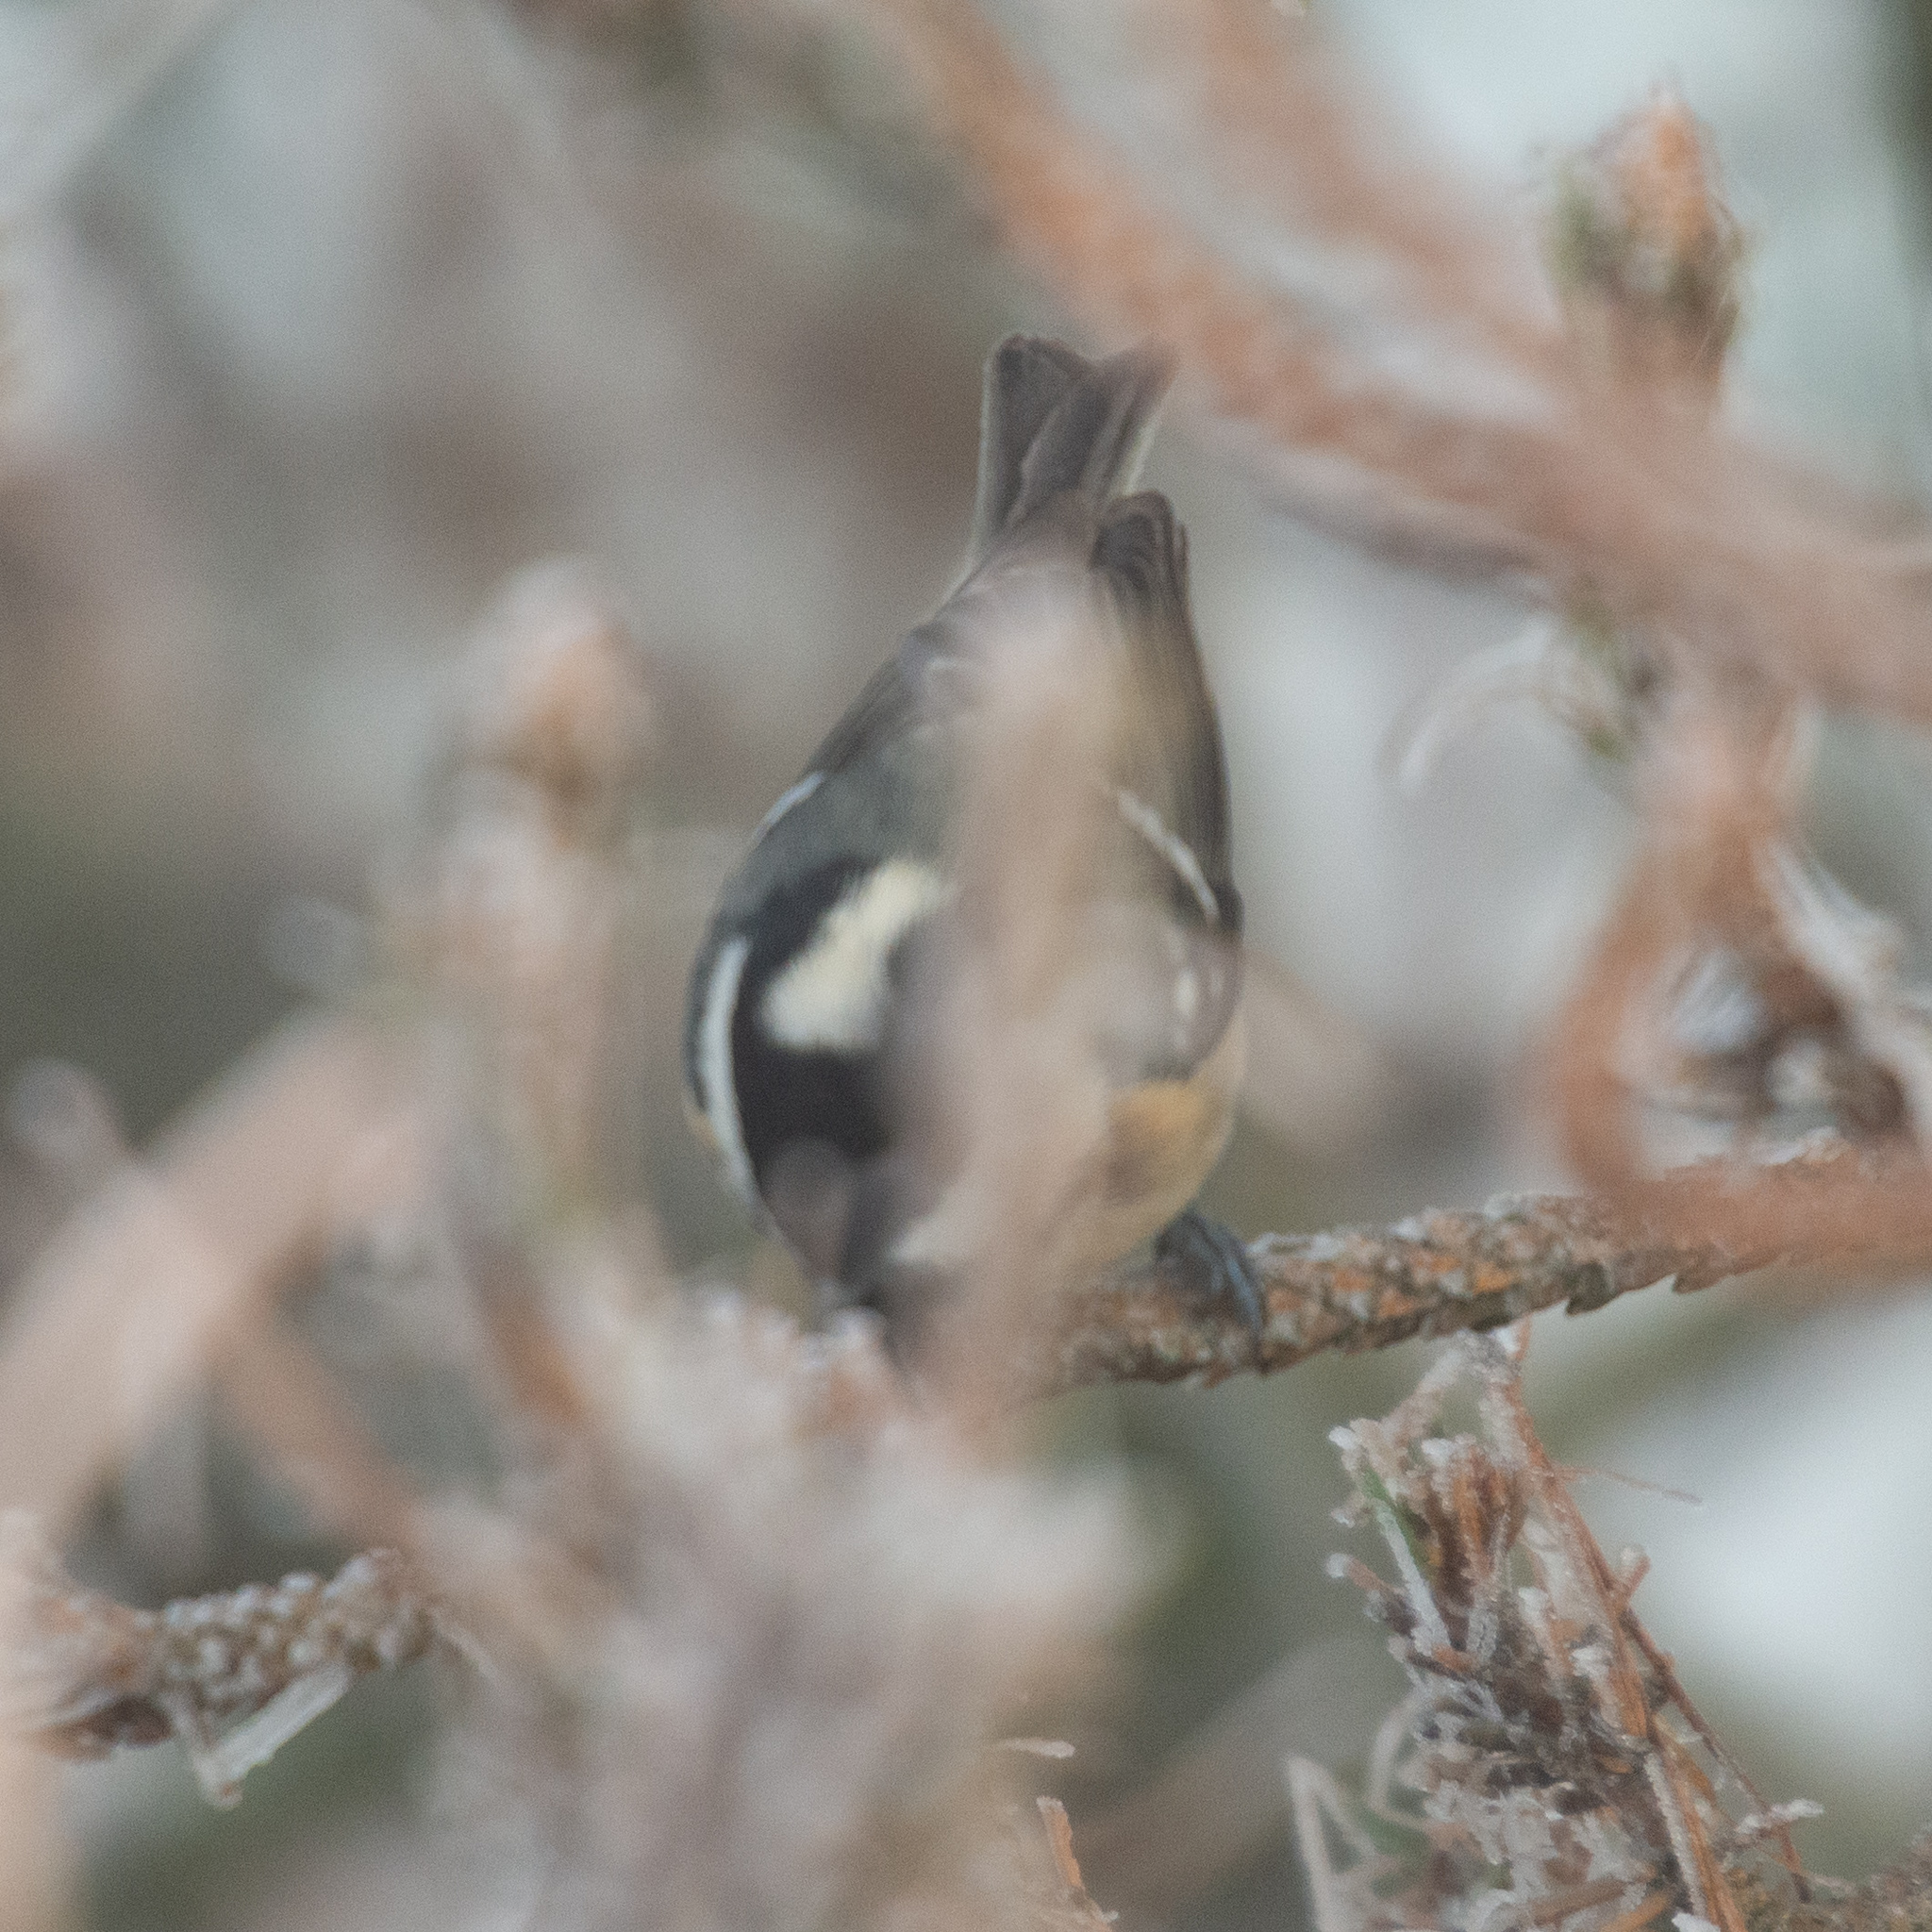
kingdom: Animalia
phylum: Chordata
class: Aves
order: Passeriformes
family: Paridae
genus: Periparus
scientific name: Periparus ater
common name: Coal tit
